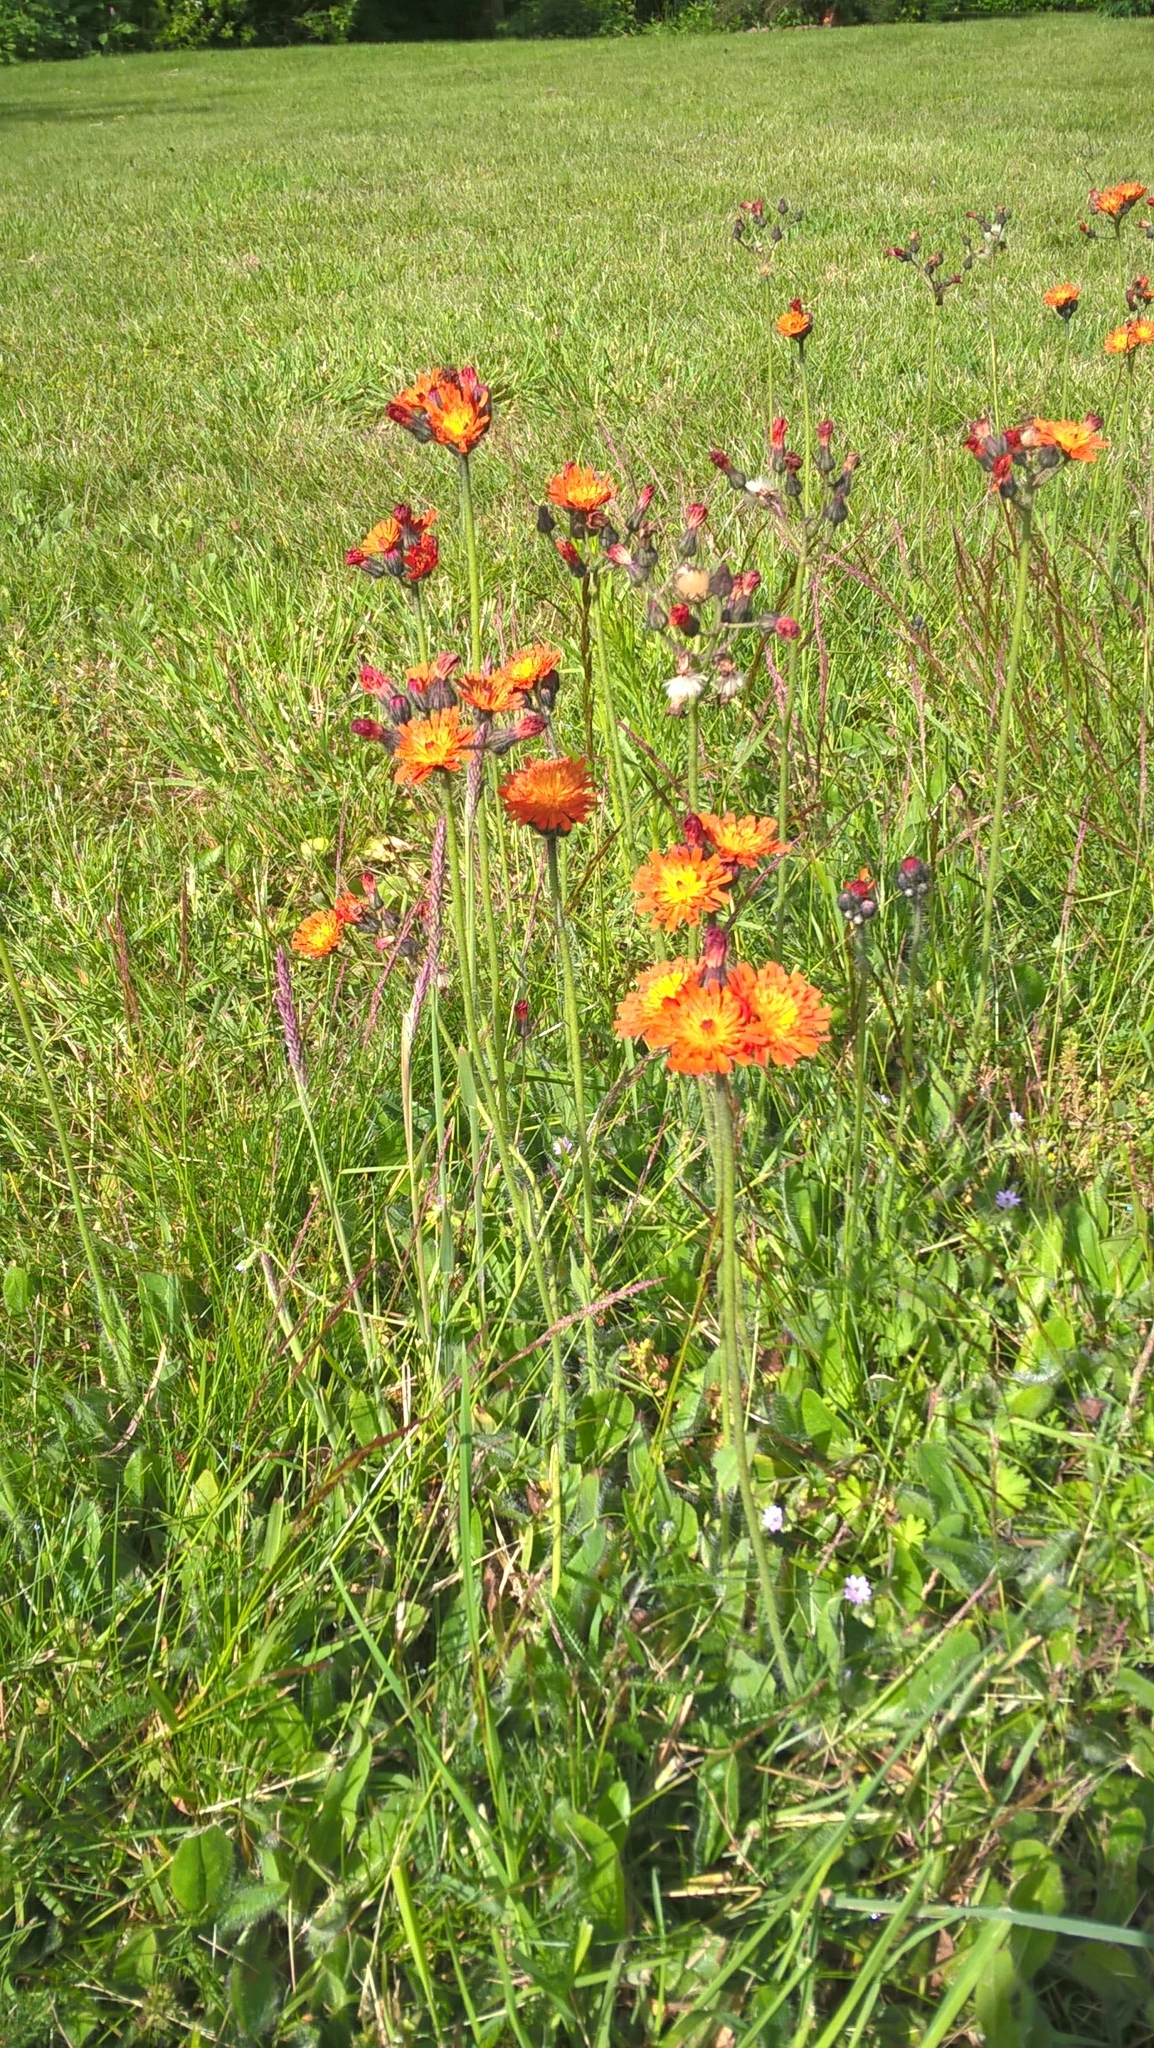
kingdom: Plantae
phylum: Tracheophyta
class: Magnoliopsida
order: Asterales
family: Asteraceae
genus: Pilosella
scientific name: Pilosella aurantiaca
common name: Fox-and-cubs
